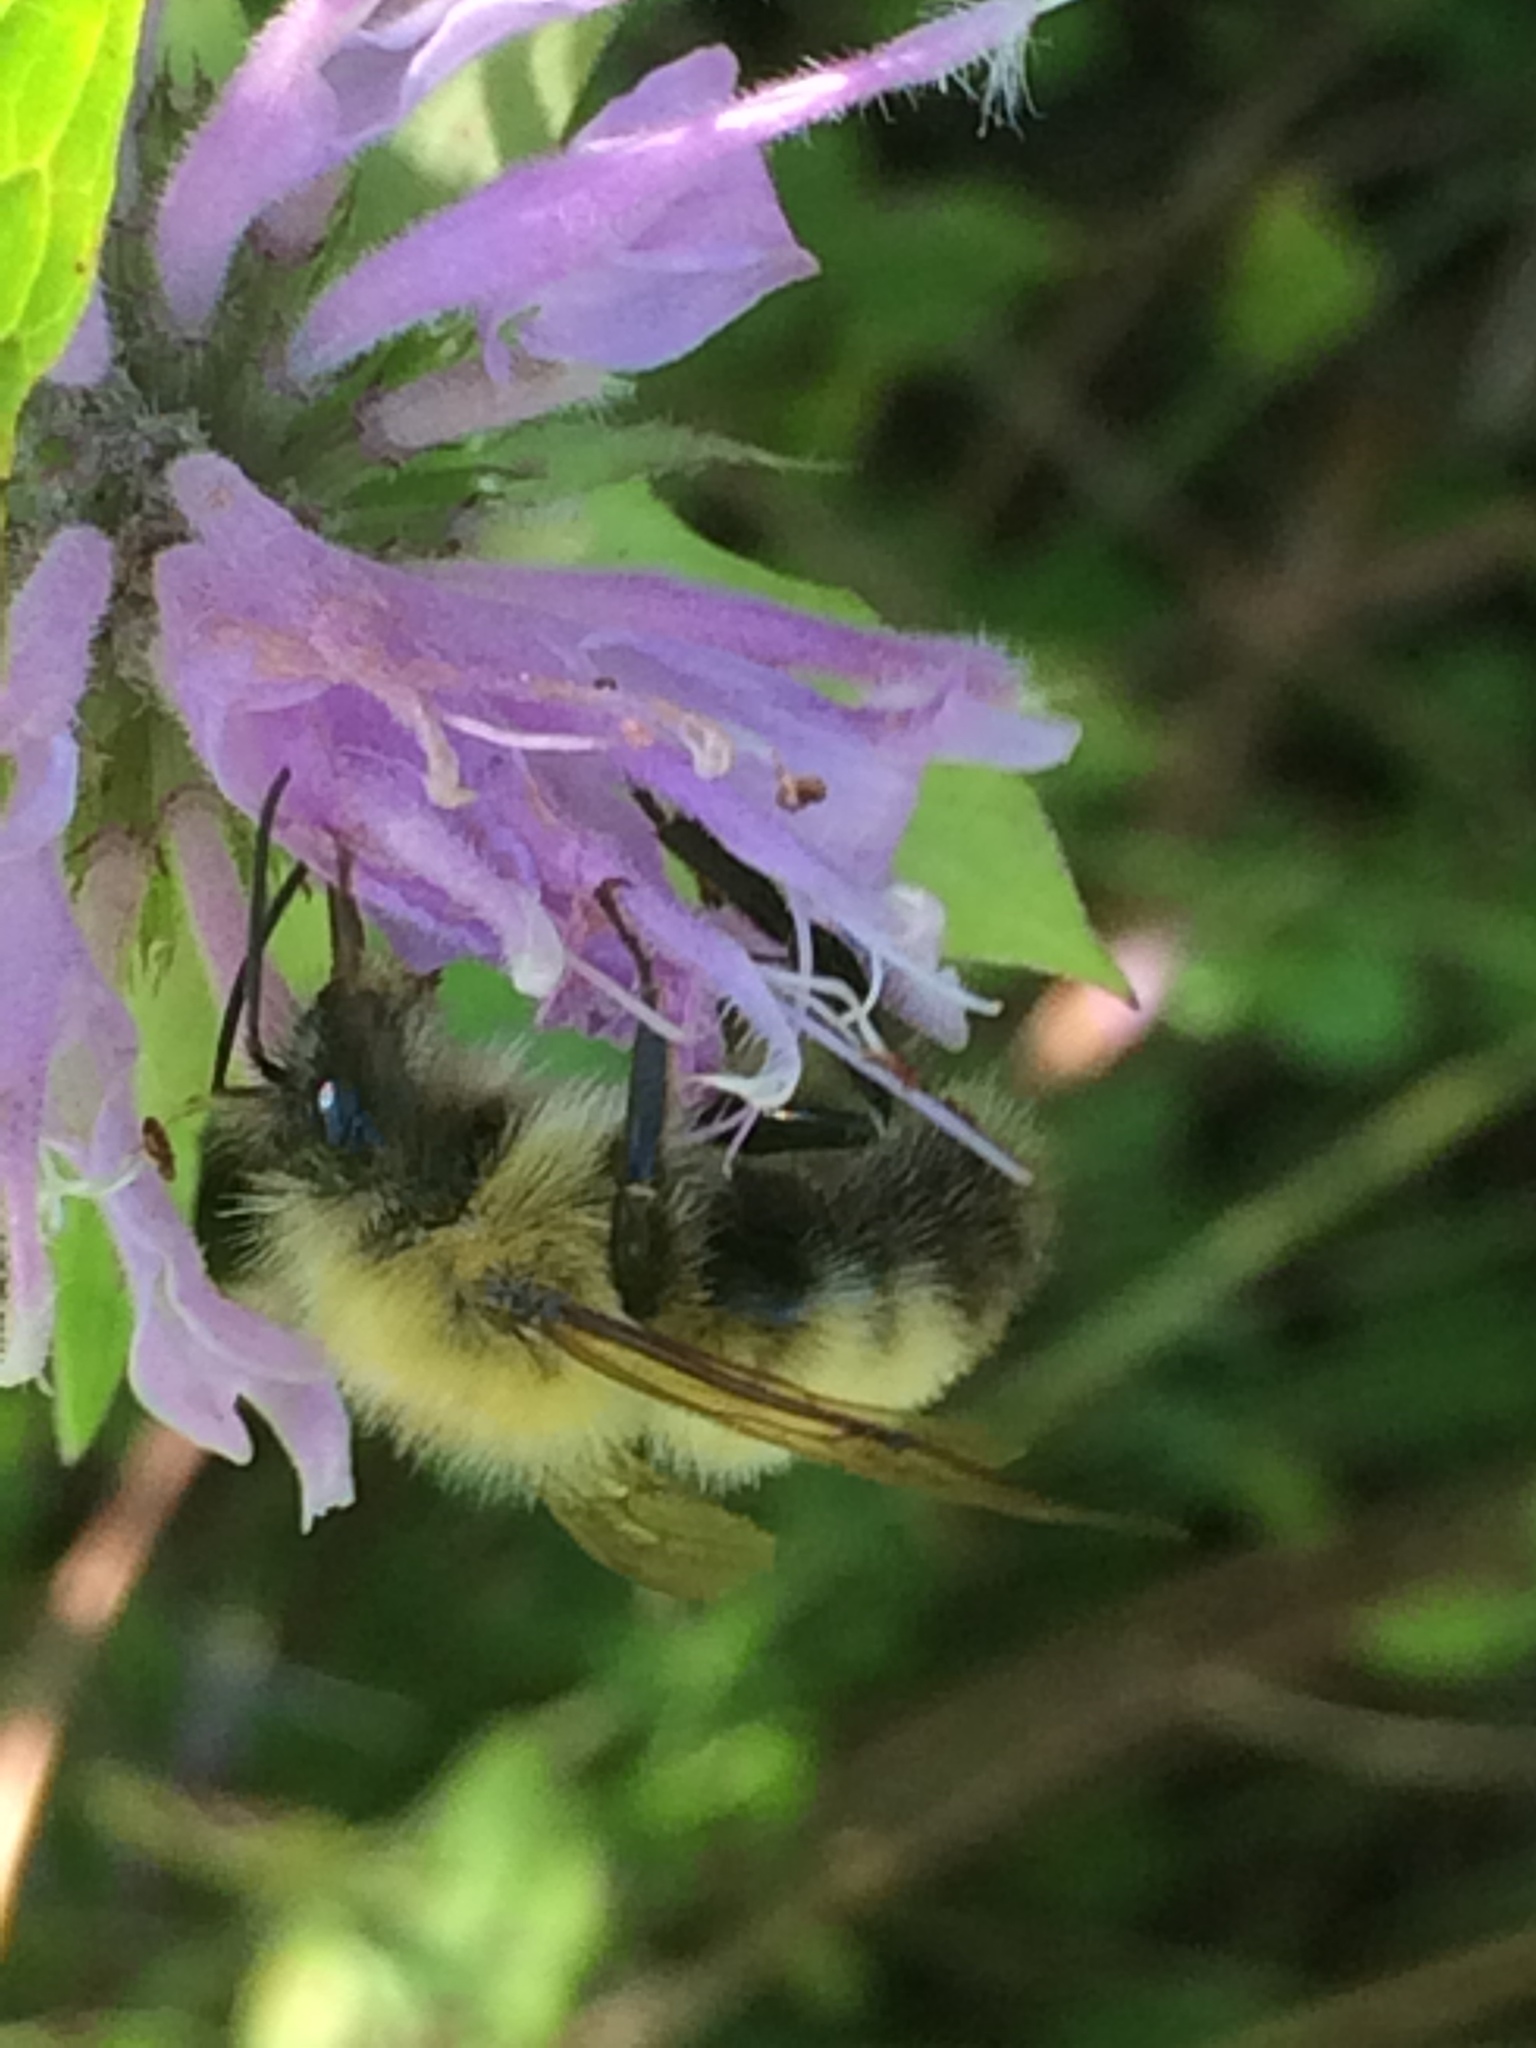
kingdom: Animalia
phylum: Arthropoda
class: Insecta
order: Hymenoptera
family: Apidae
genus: Bombus
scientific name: Bombus perplexus
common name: Confusing bumble bee
